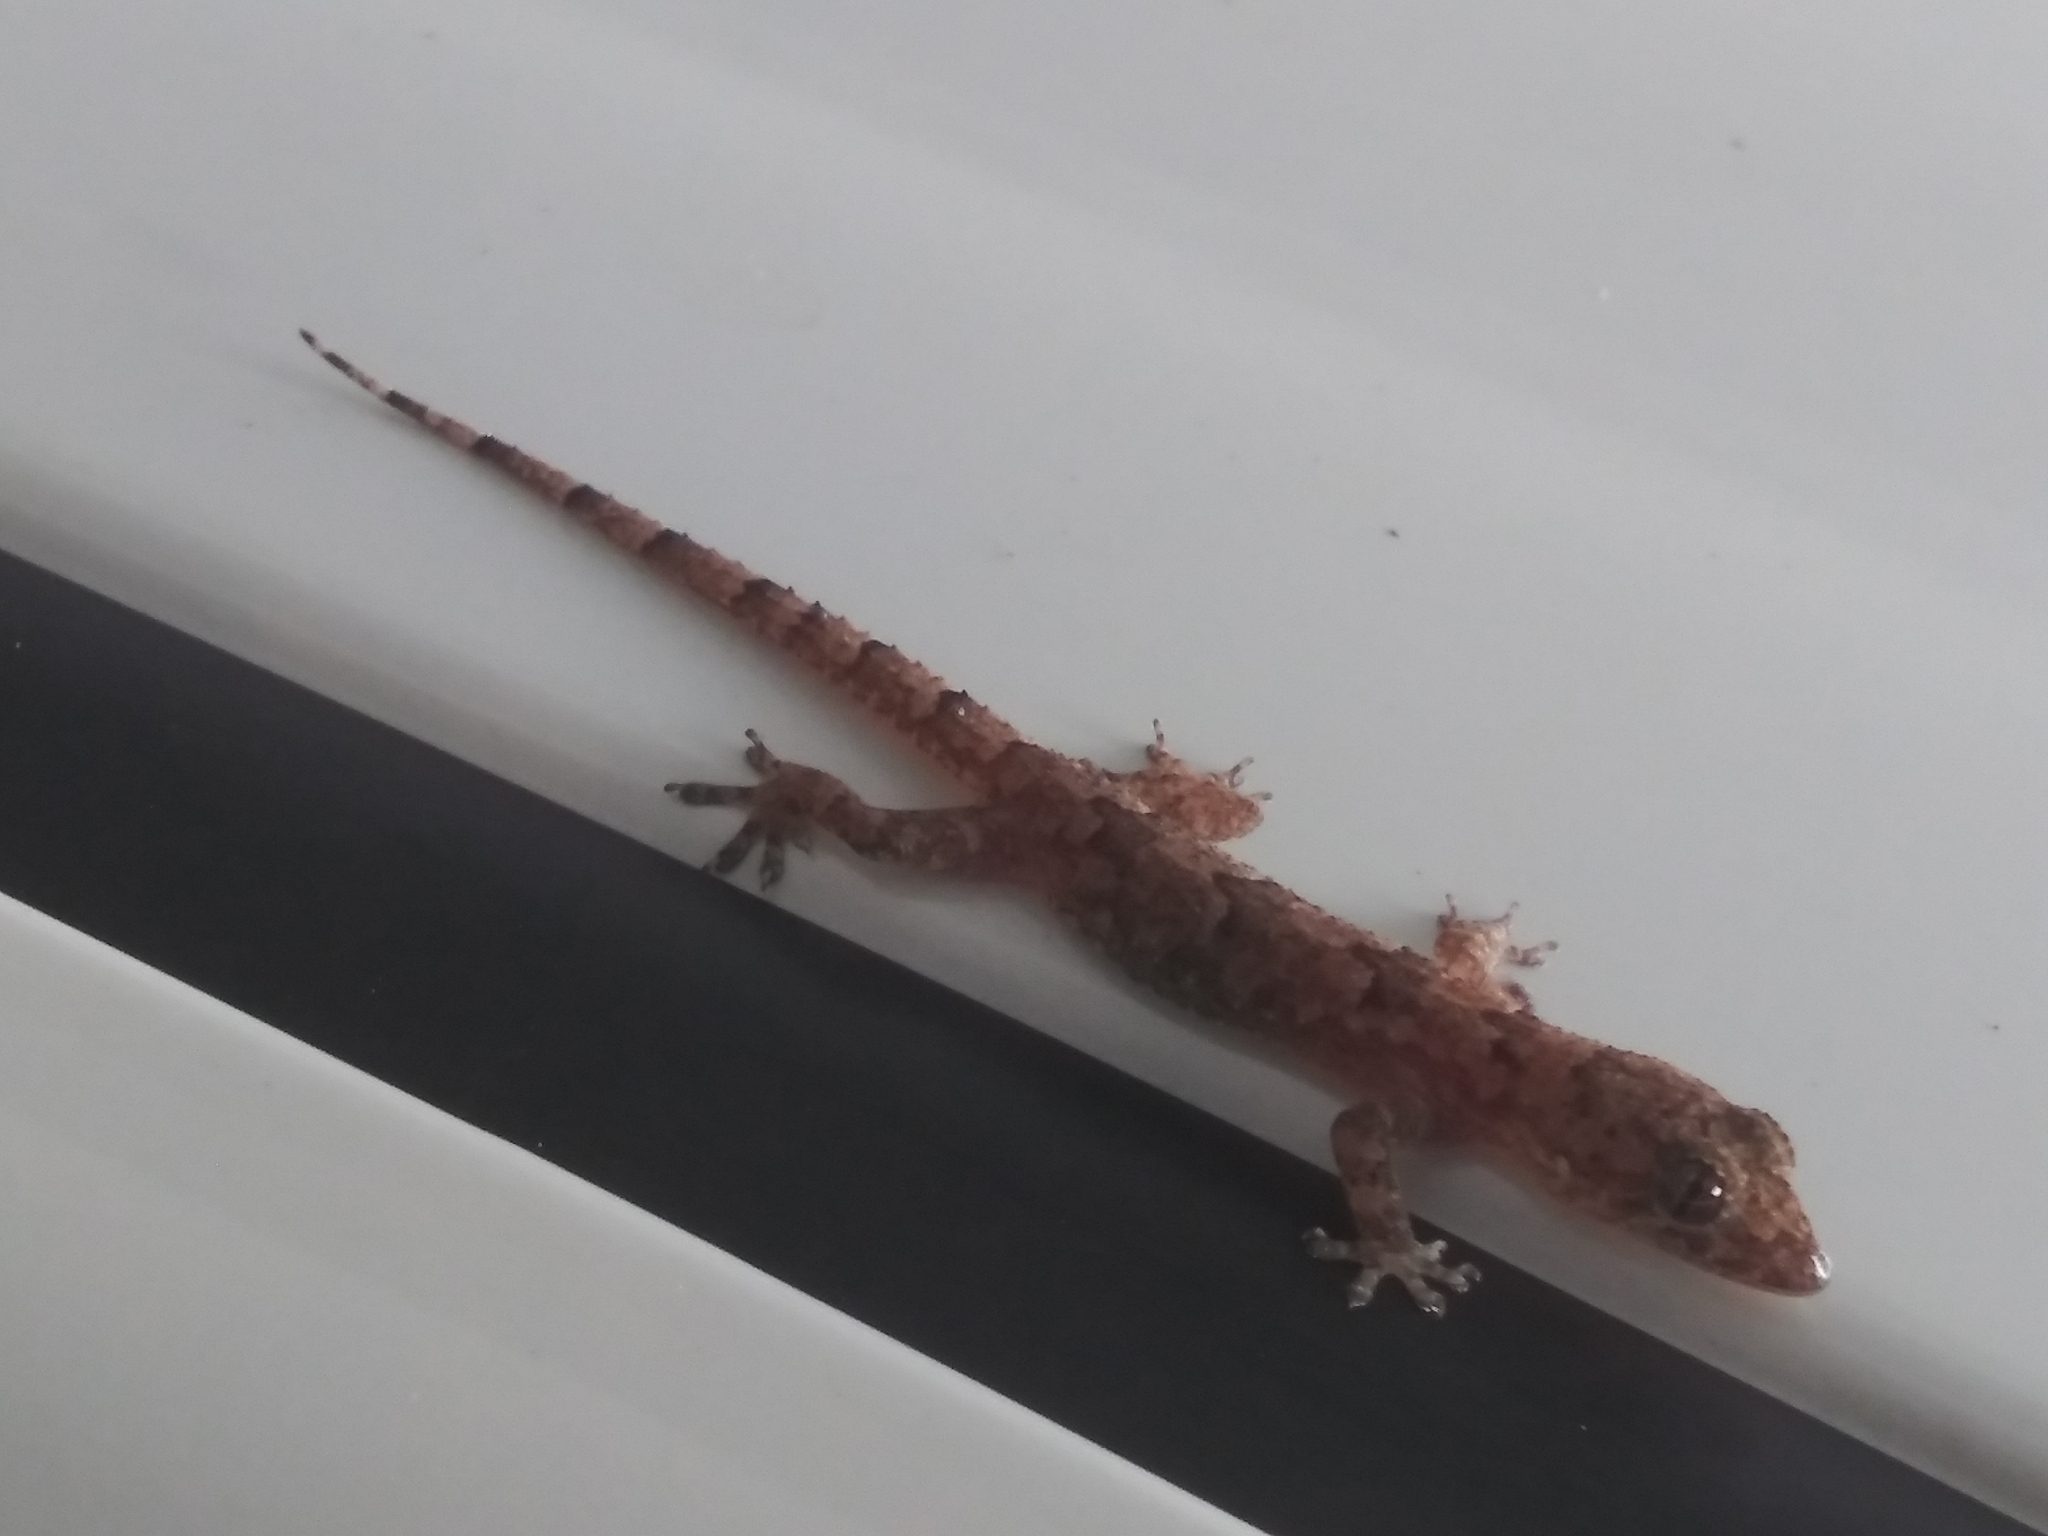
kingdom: Animalia
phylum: Chordata
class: Squamata
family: Gekkonidae
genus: Hemidactylus
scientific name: Hemidactylus mabouia
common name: House gecko
